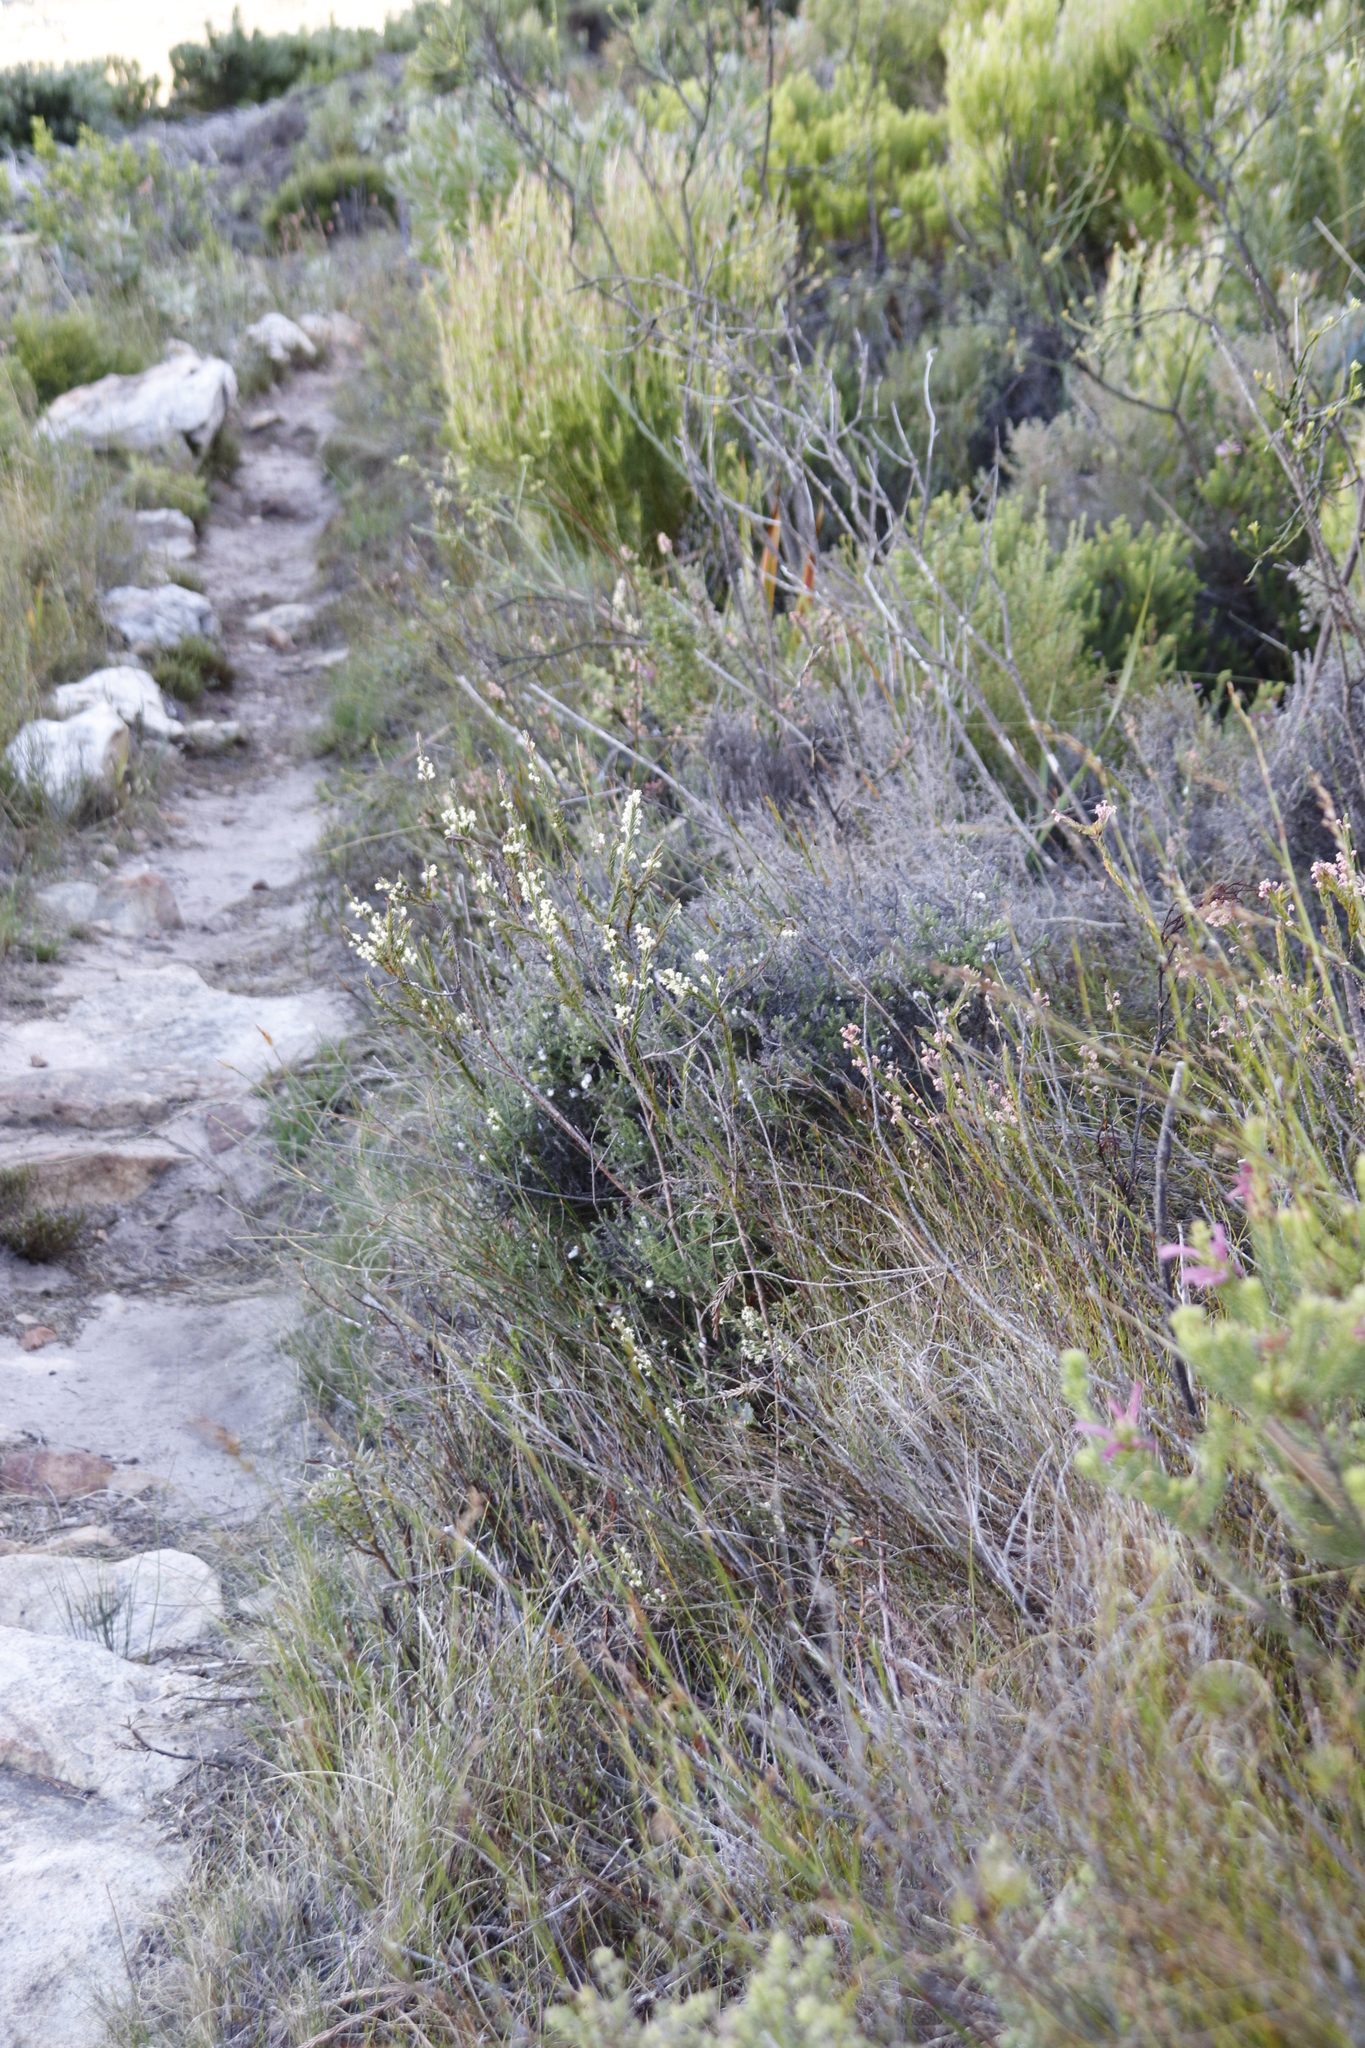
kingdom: Plantae
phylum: Tracheophyta
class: Magnoliopsida
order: Malvales
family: Thymelaeaceae
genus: Struthiola
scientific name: Struthiola ciliata
